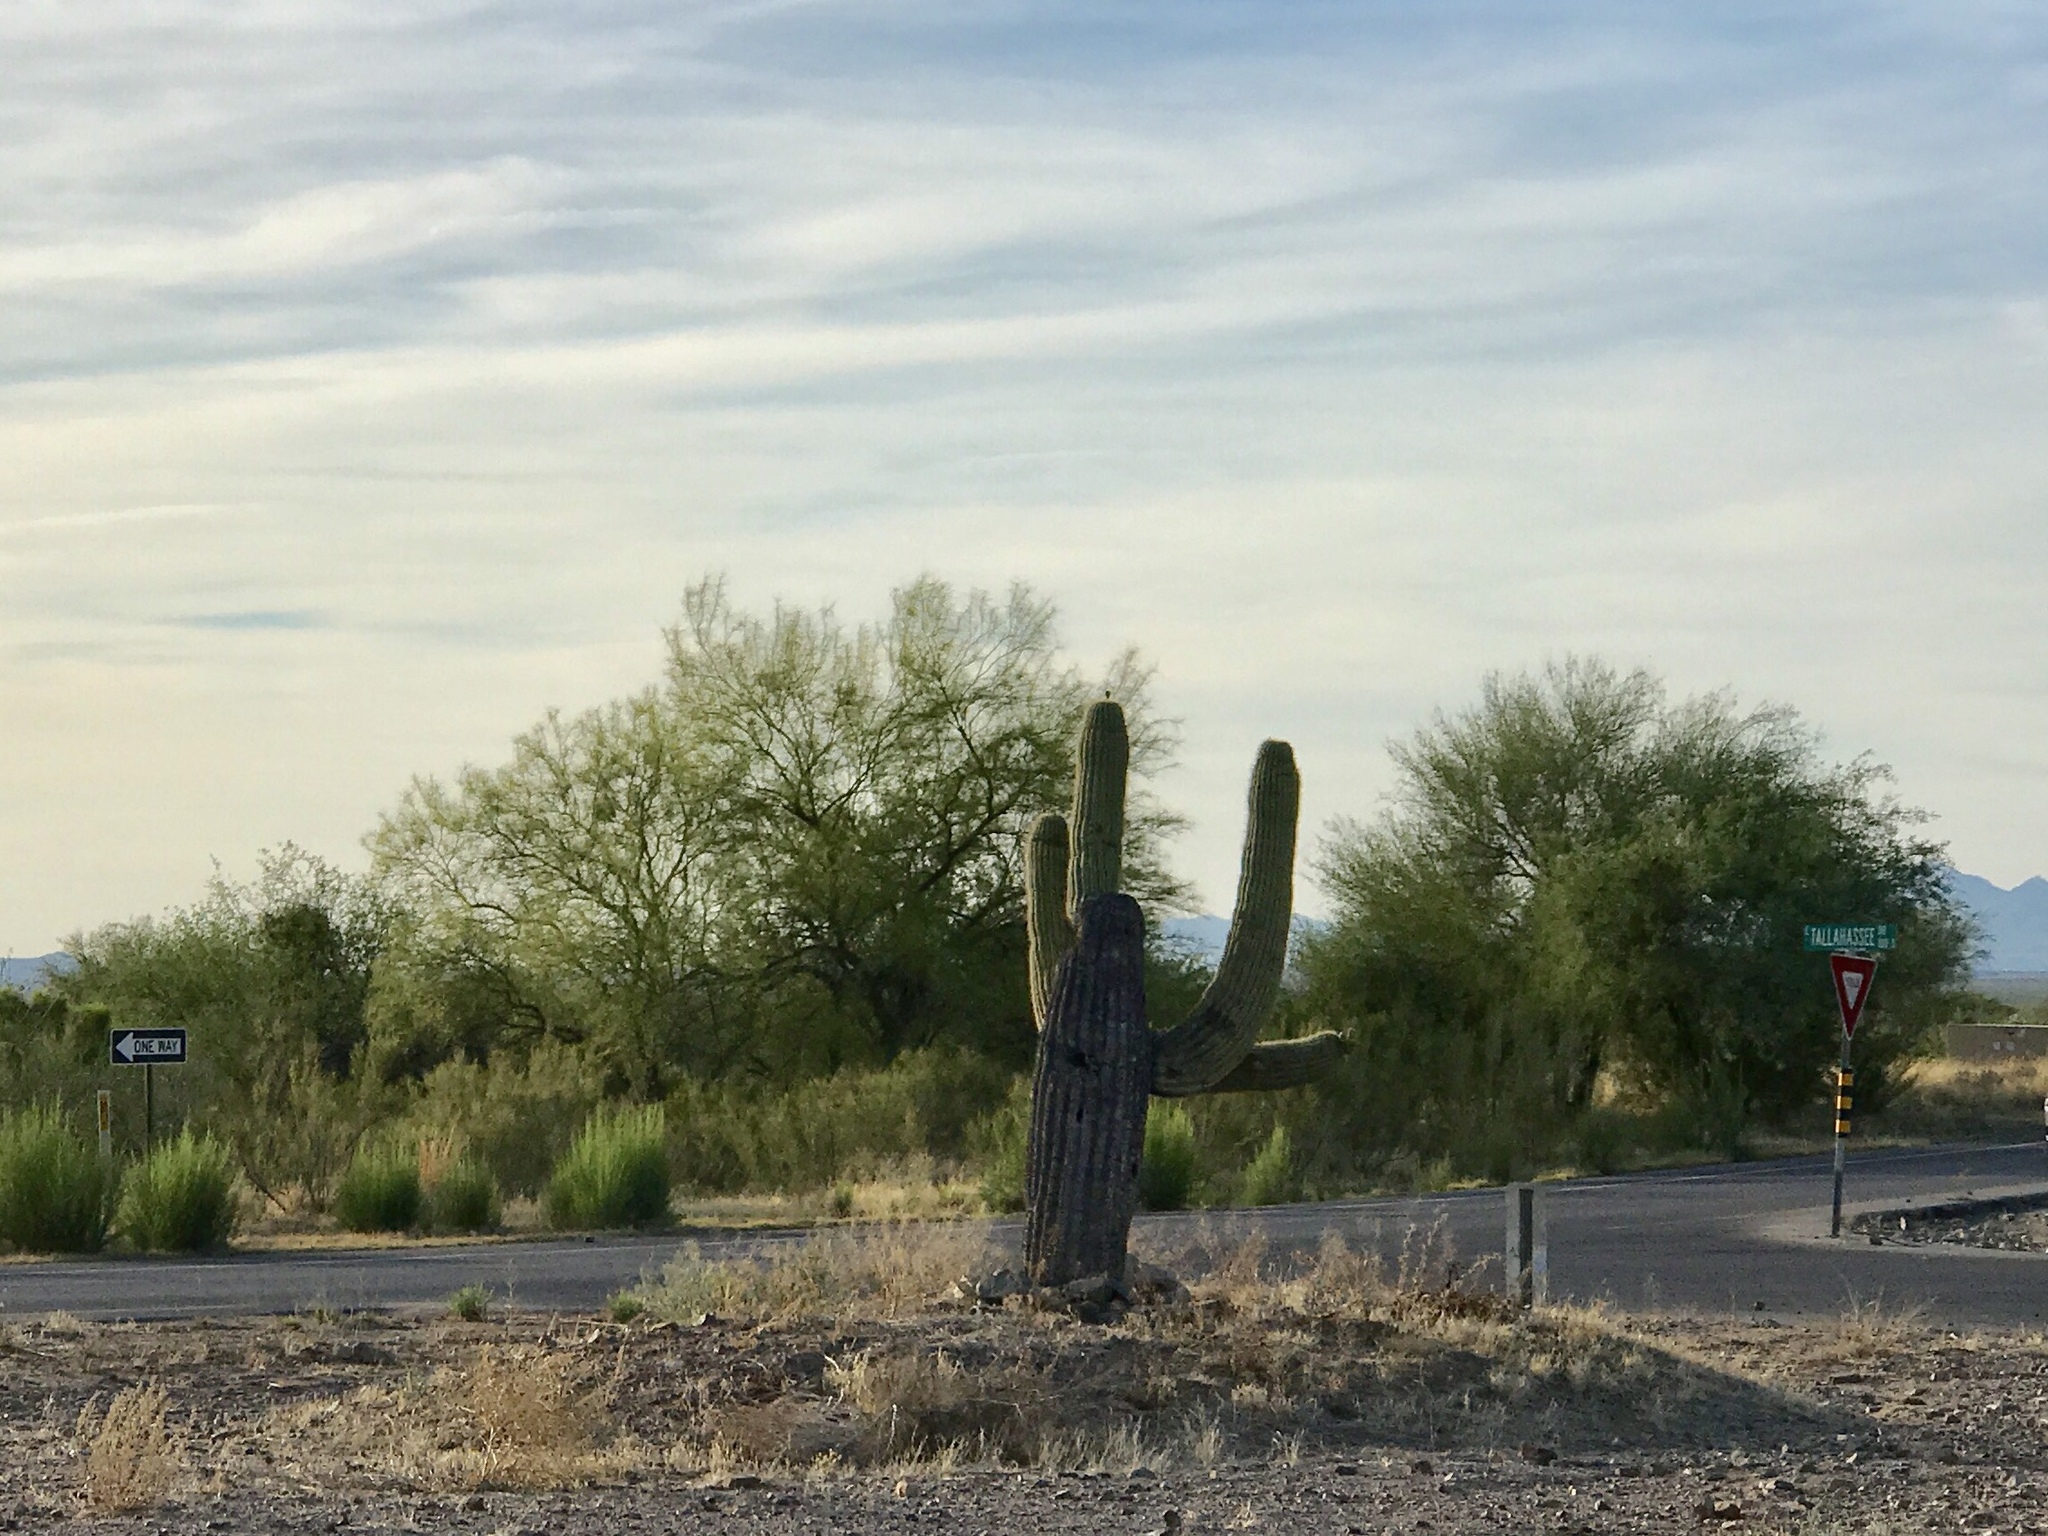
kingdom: Plantae
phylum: Tracheophyta
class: Magnoliopsida
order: Caryophyllales
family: Cactaceae
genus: Carnegiea
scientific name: Carnegiea gigantea
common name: Saguaro
